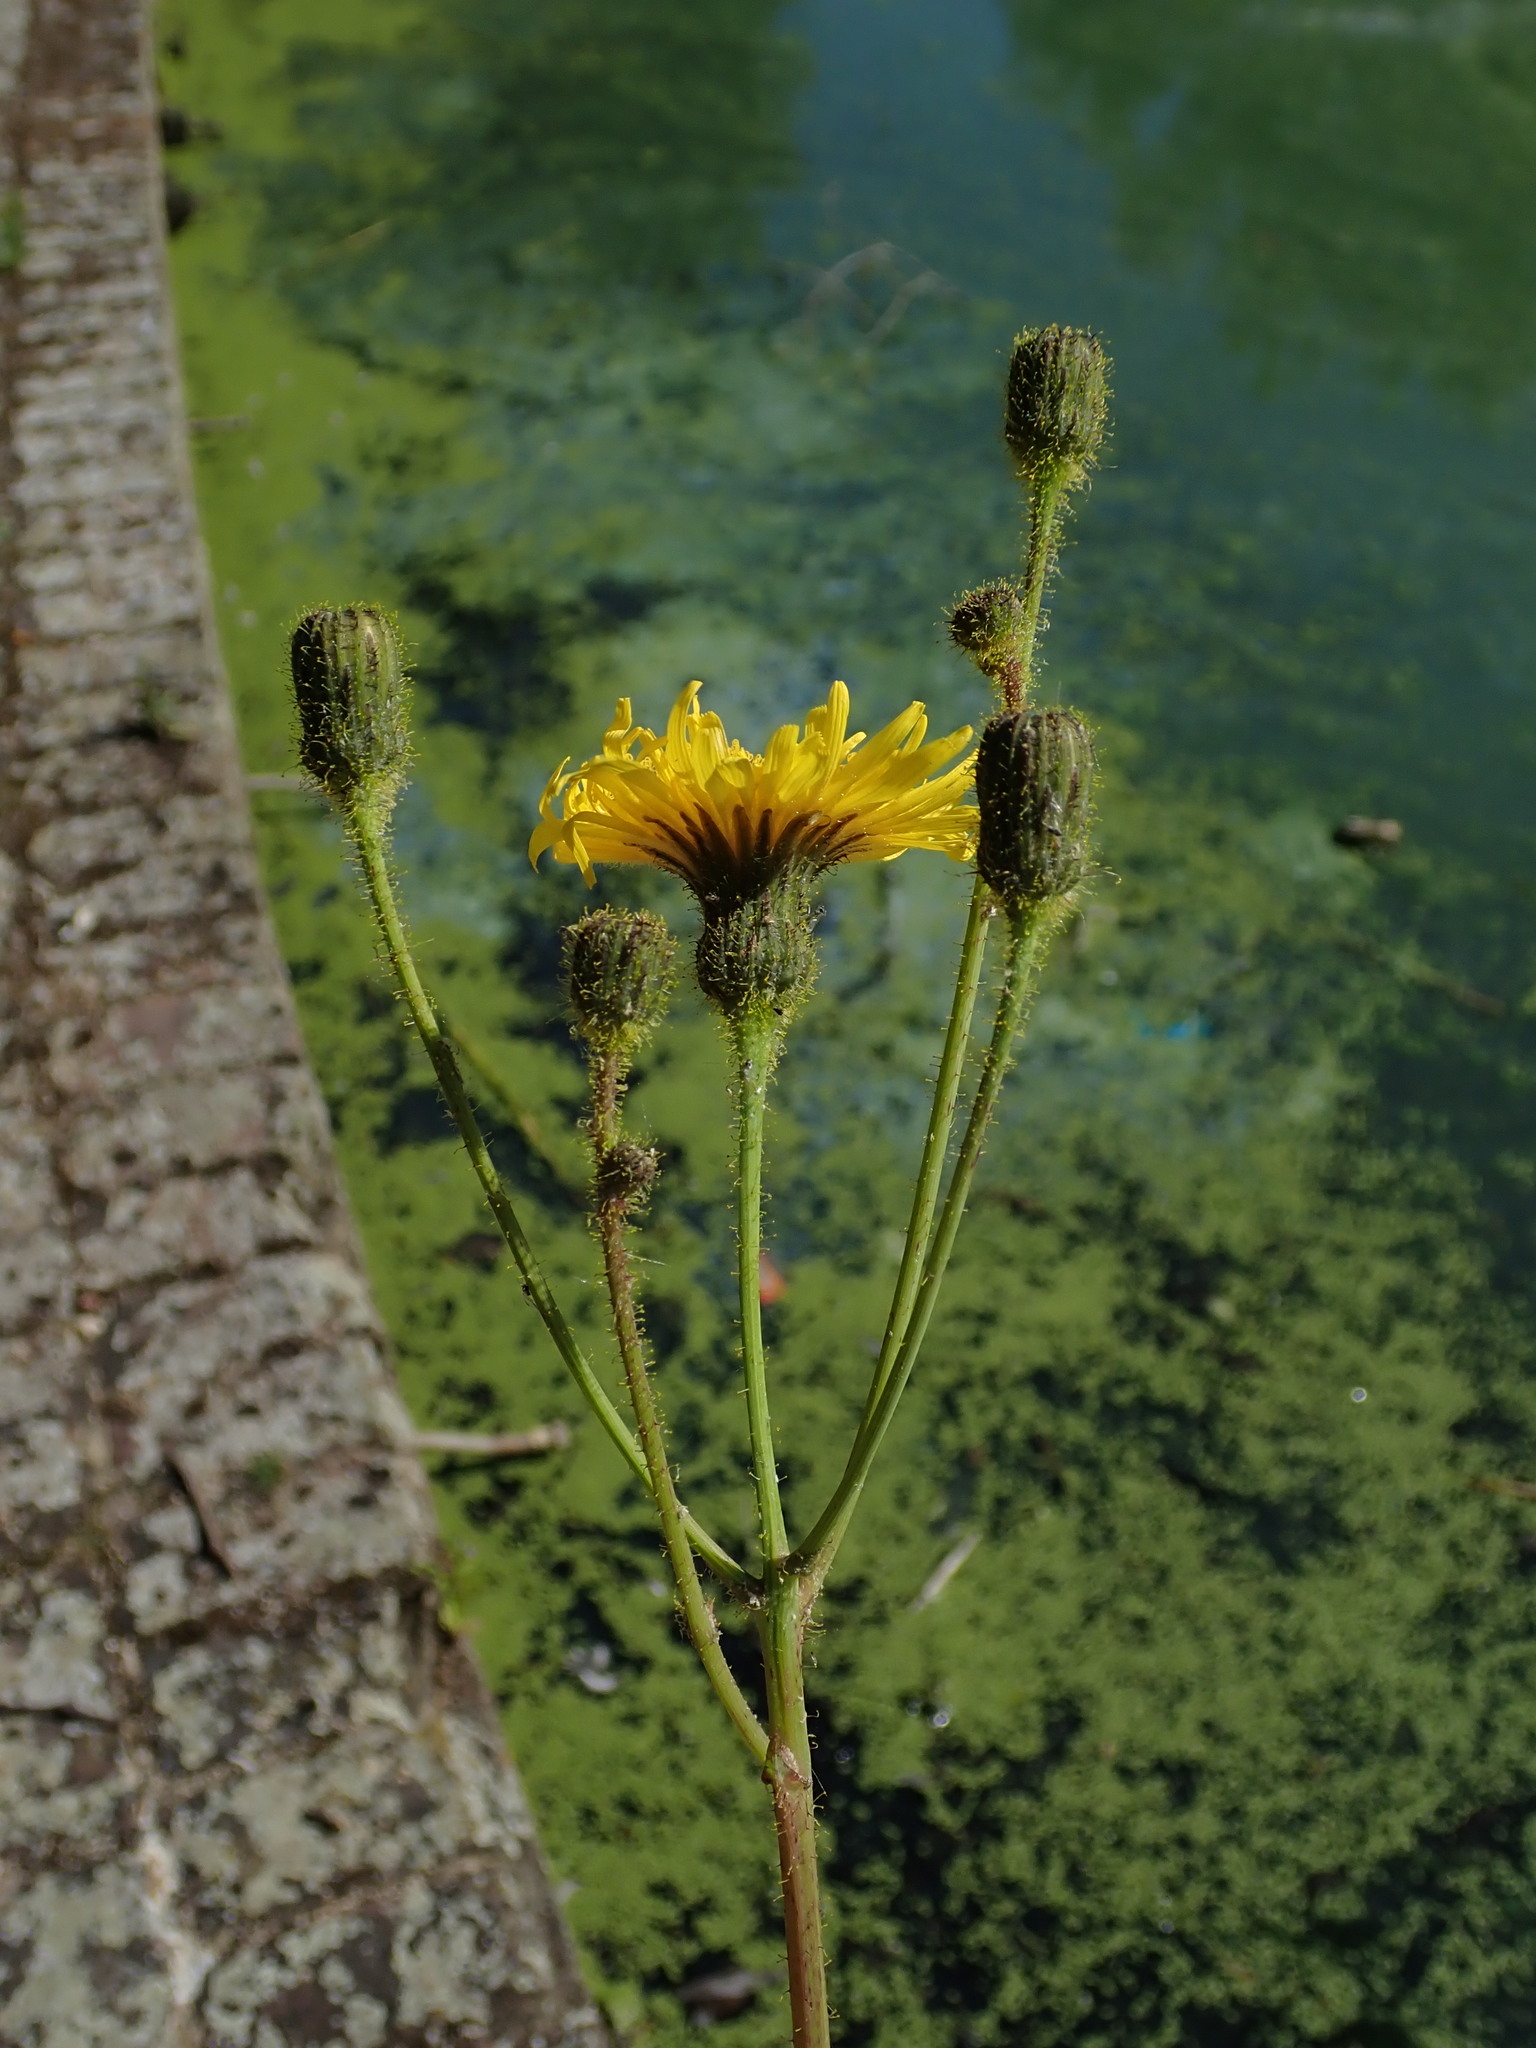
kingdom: Plantae
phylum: Tracheophyta
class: Magnoliopsida
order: Asterales
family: Asteraceae
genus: Sonchus
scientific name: Sonchus arvensis
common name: Perennial sow-thistle
